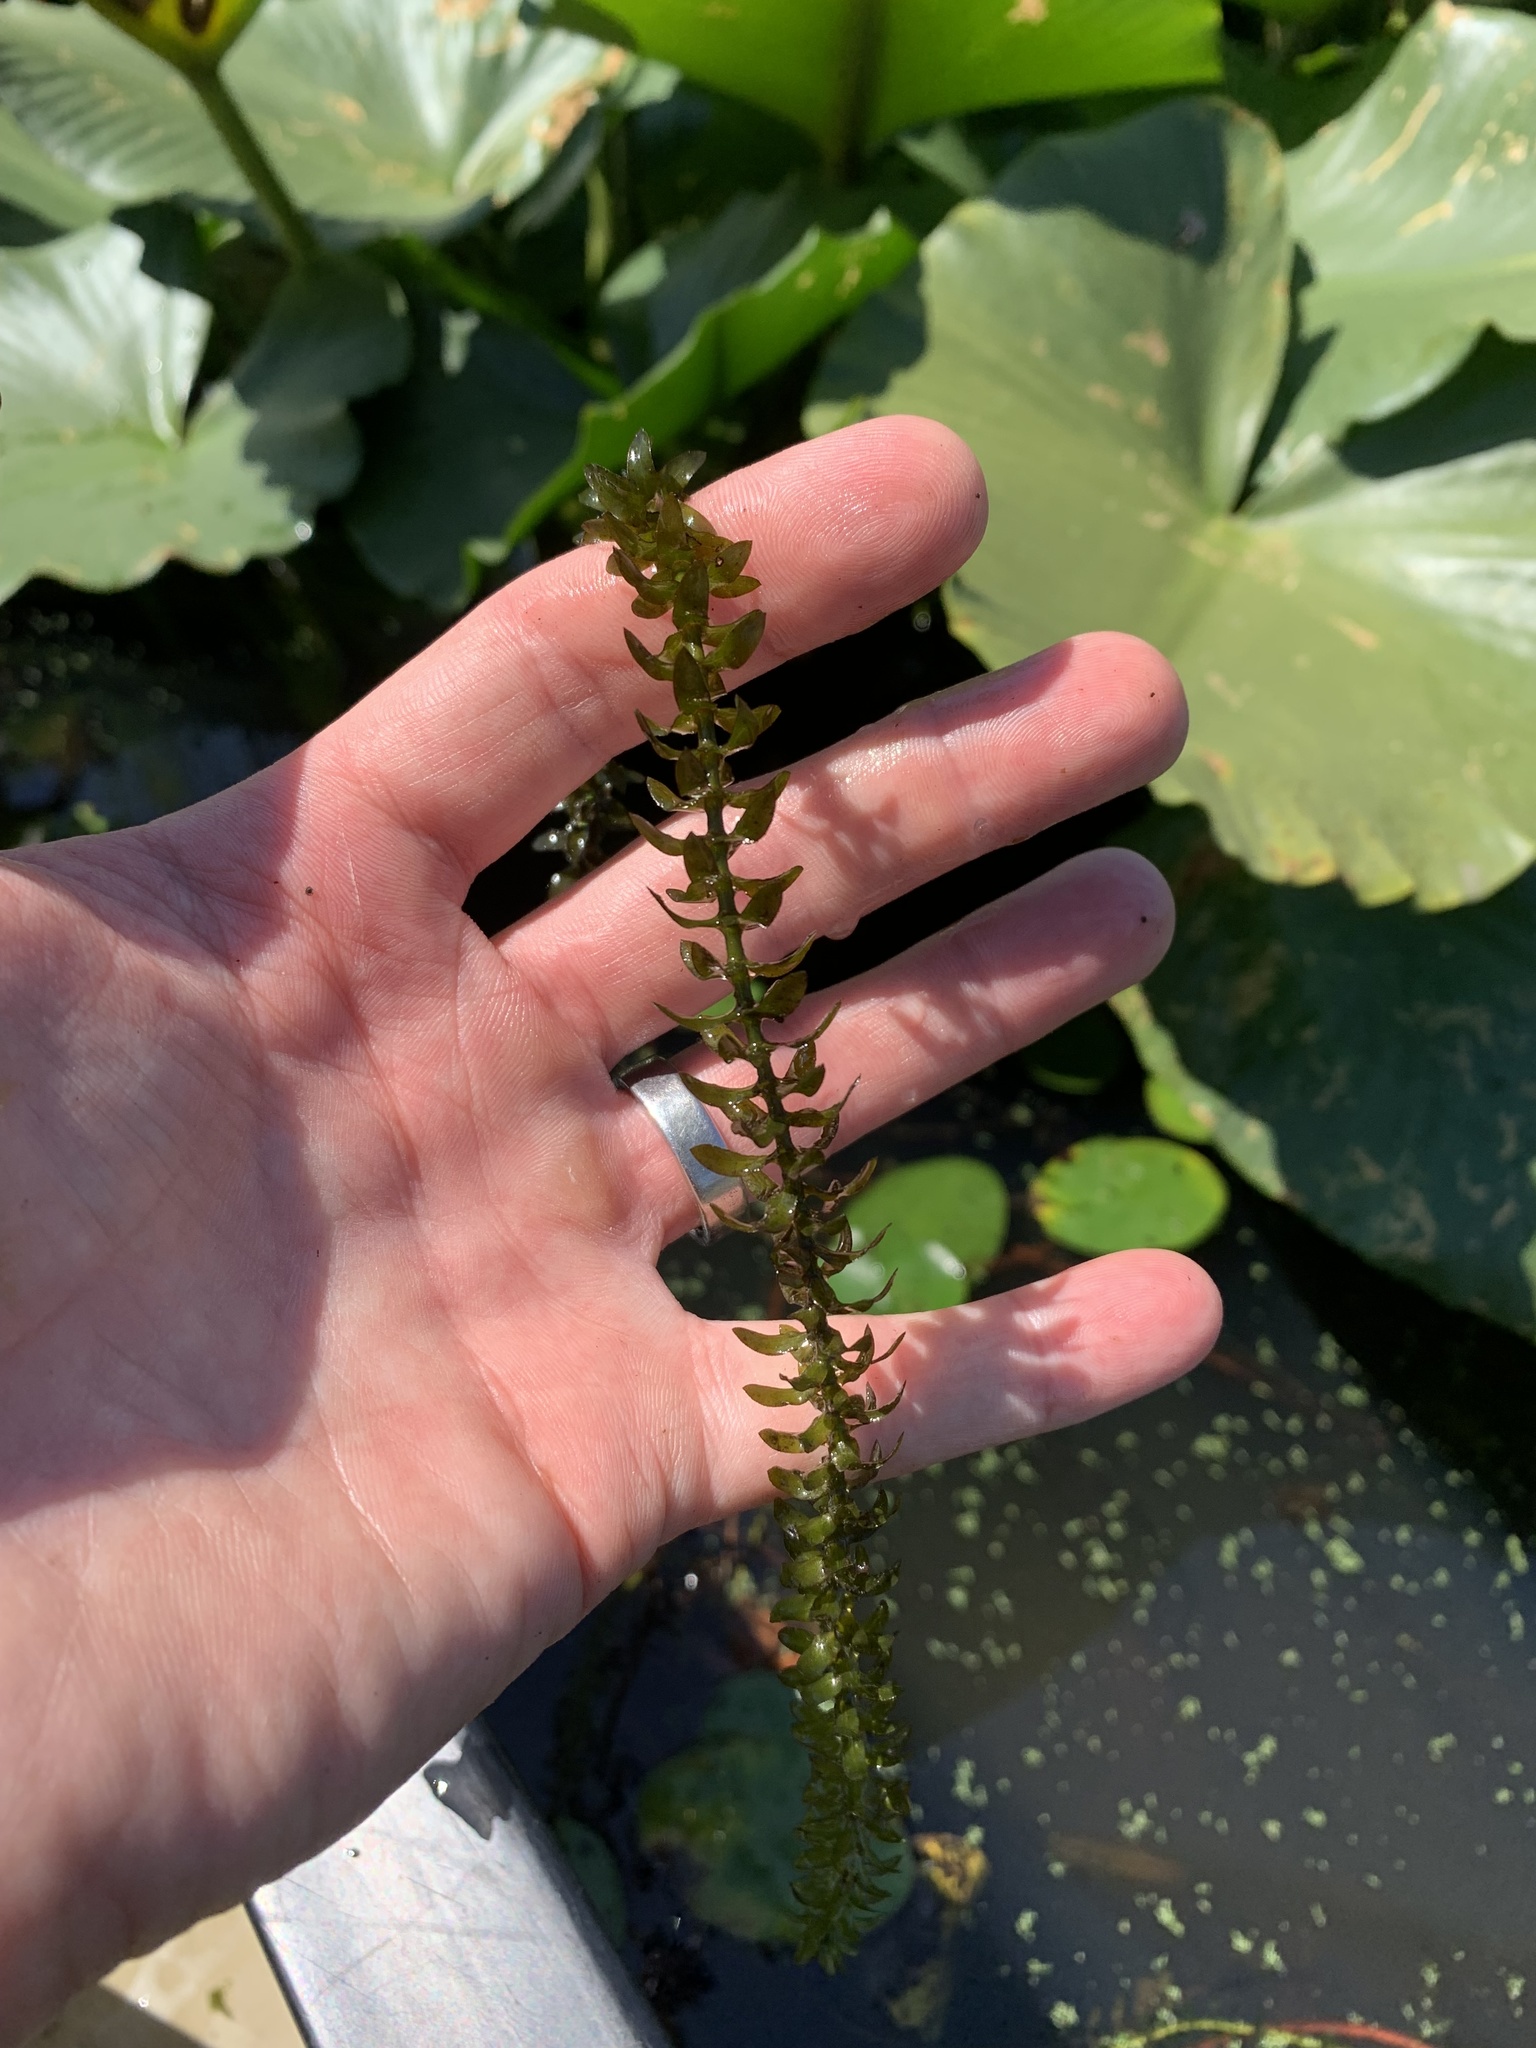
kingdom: Plantae
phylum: Tracheophyta
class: Liliopsida
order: Alismatales
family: Hydrocharitaceae
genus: Elodea
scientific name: Elodea canadensis
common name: Canadian waterweed
